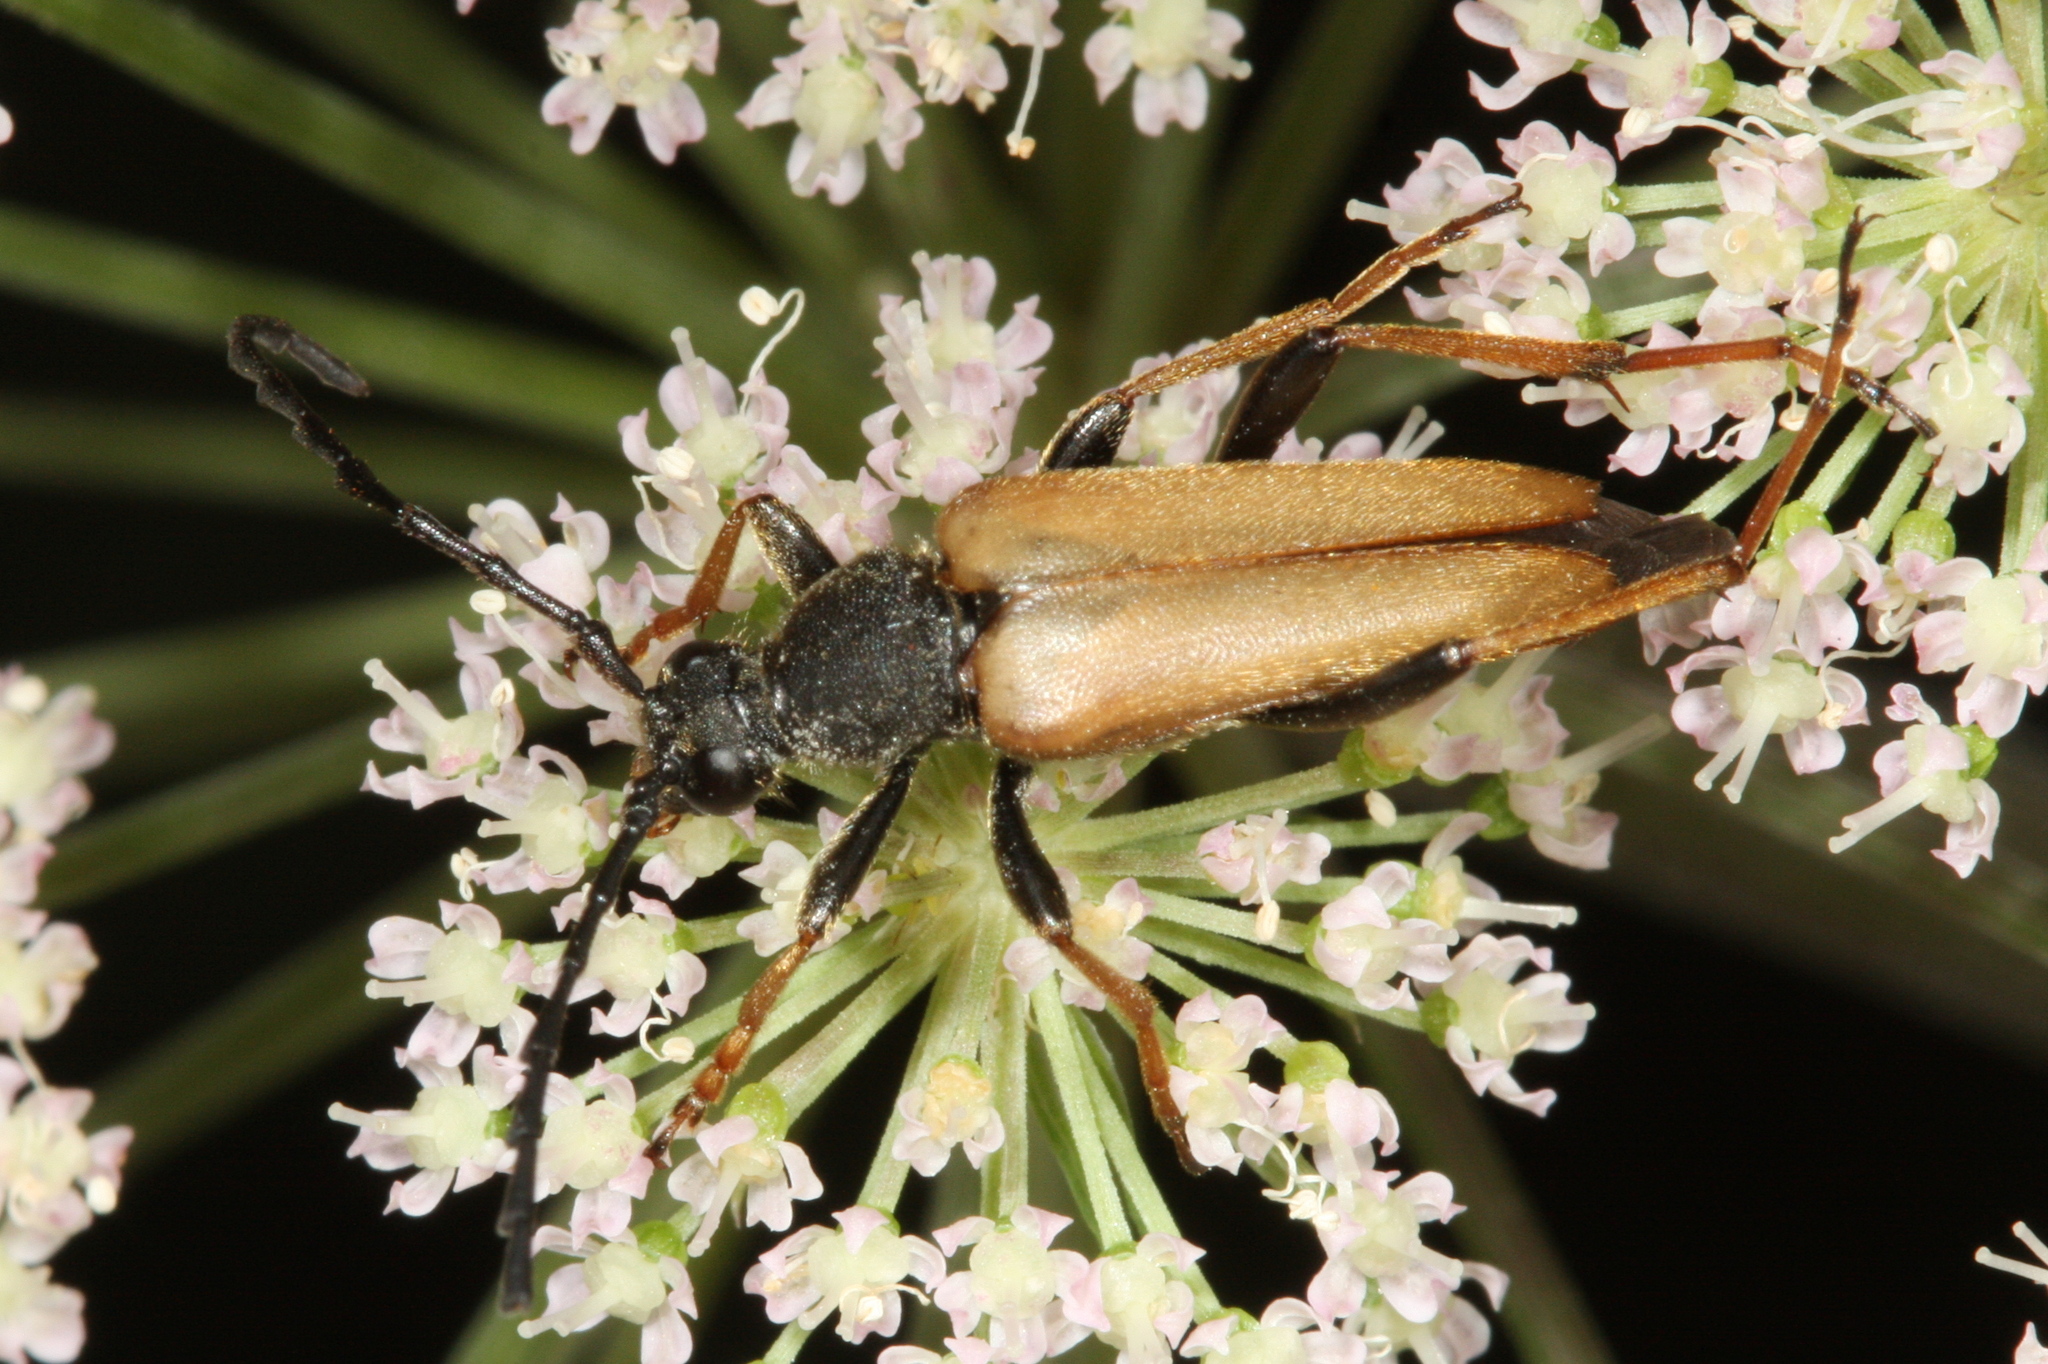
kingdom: Animalia
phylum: Arthropoda
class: Insecta
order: Coleoptera
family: Cerambycidae
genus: Stictoleptura
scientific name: Stictoleptura rubra
